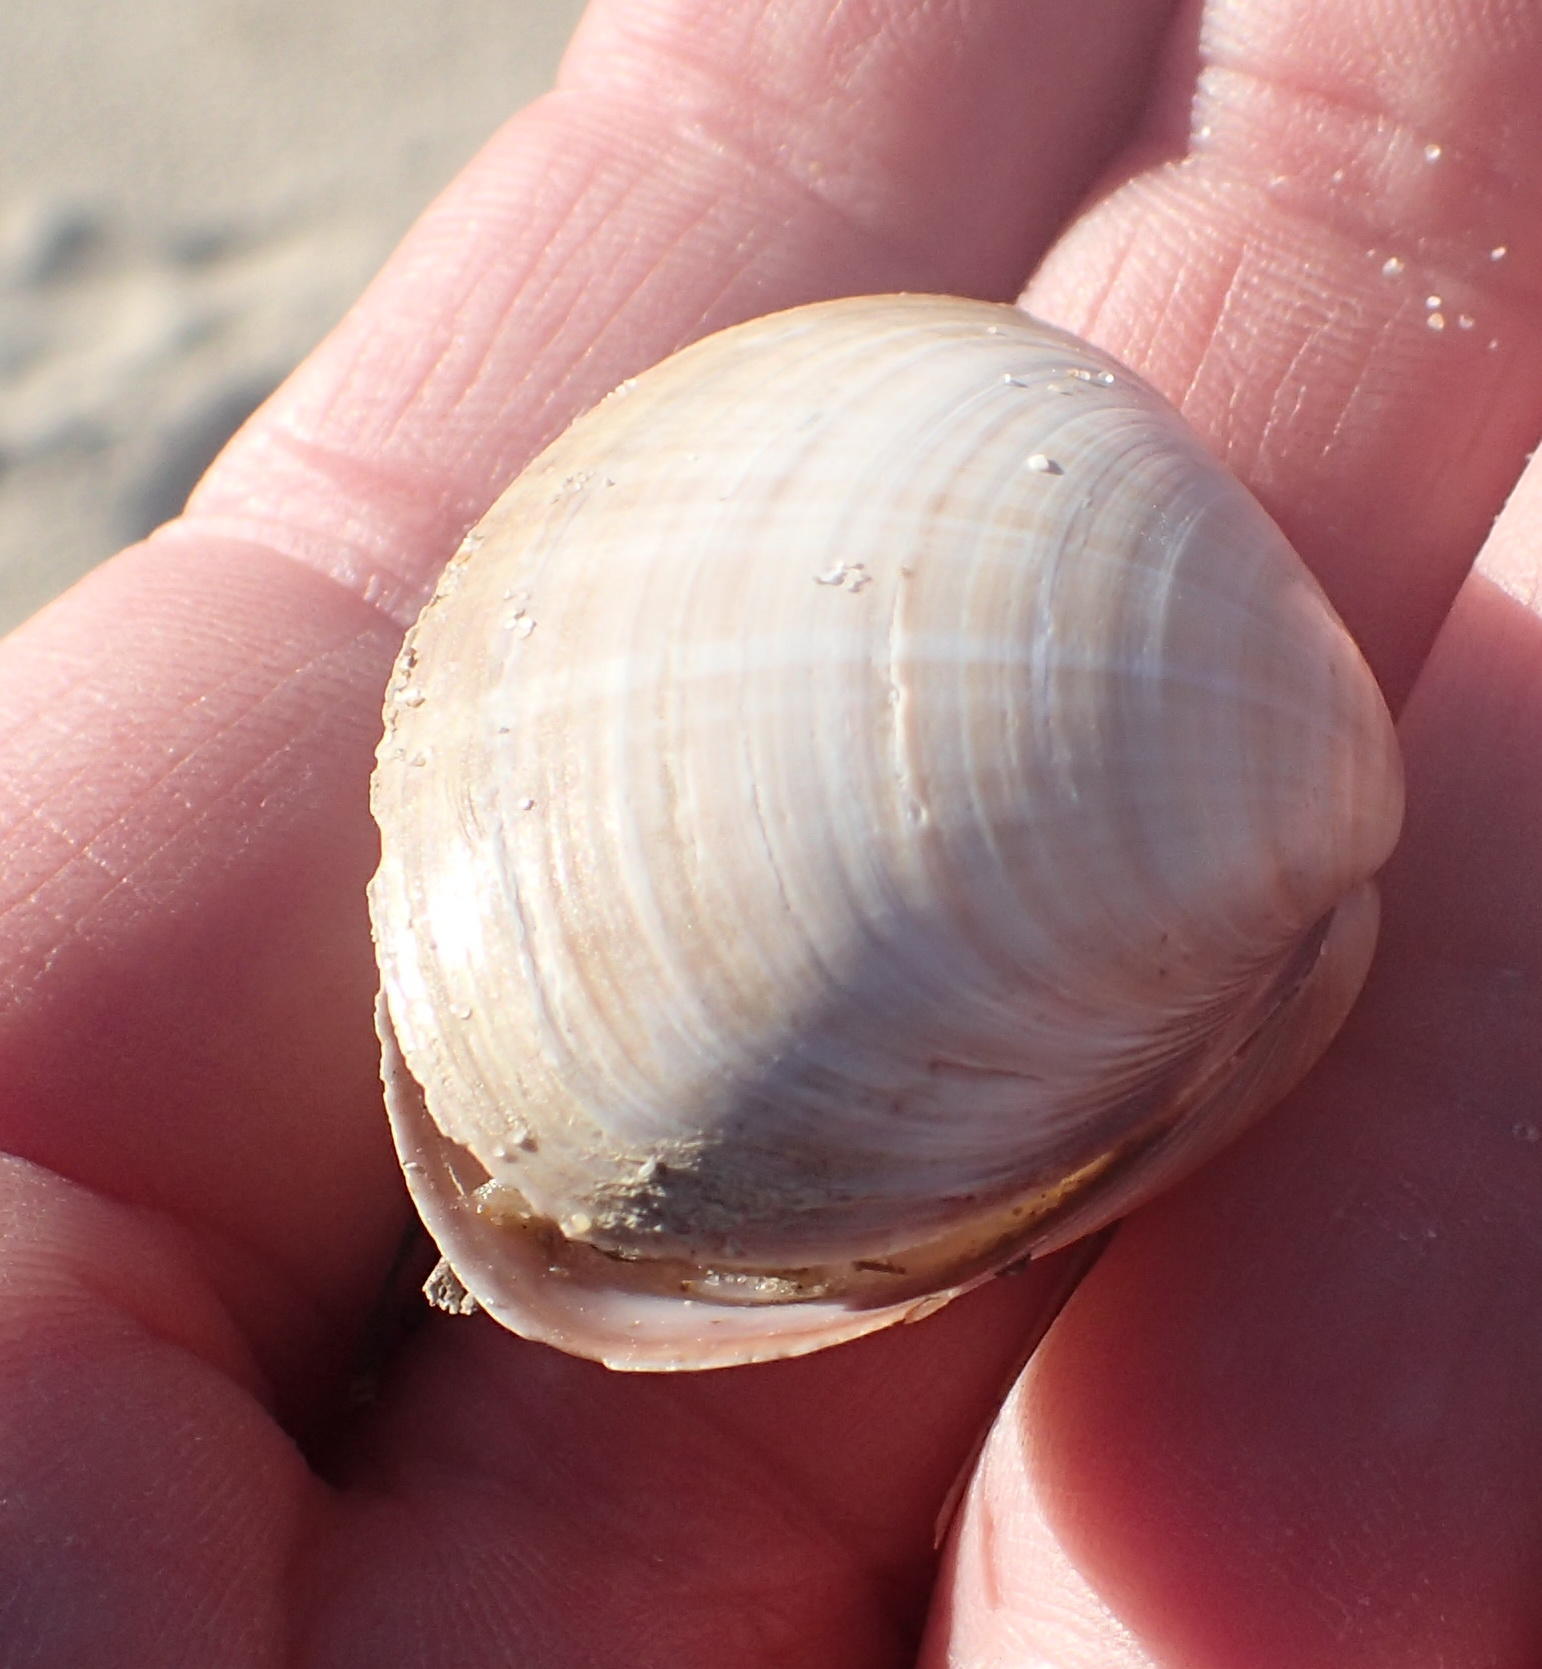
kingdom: Animalia
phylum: Mollusca
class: Bivalvia
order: Venerida
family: Mactridae
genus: Mactra
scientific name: Mactra glabrata
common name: Smooth mactra
